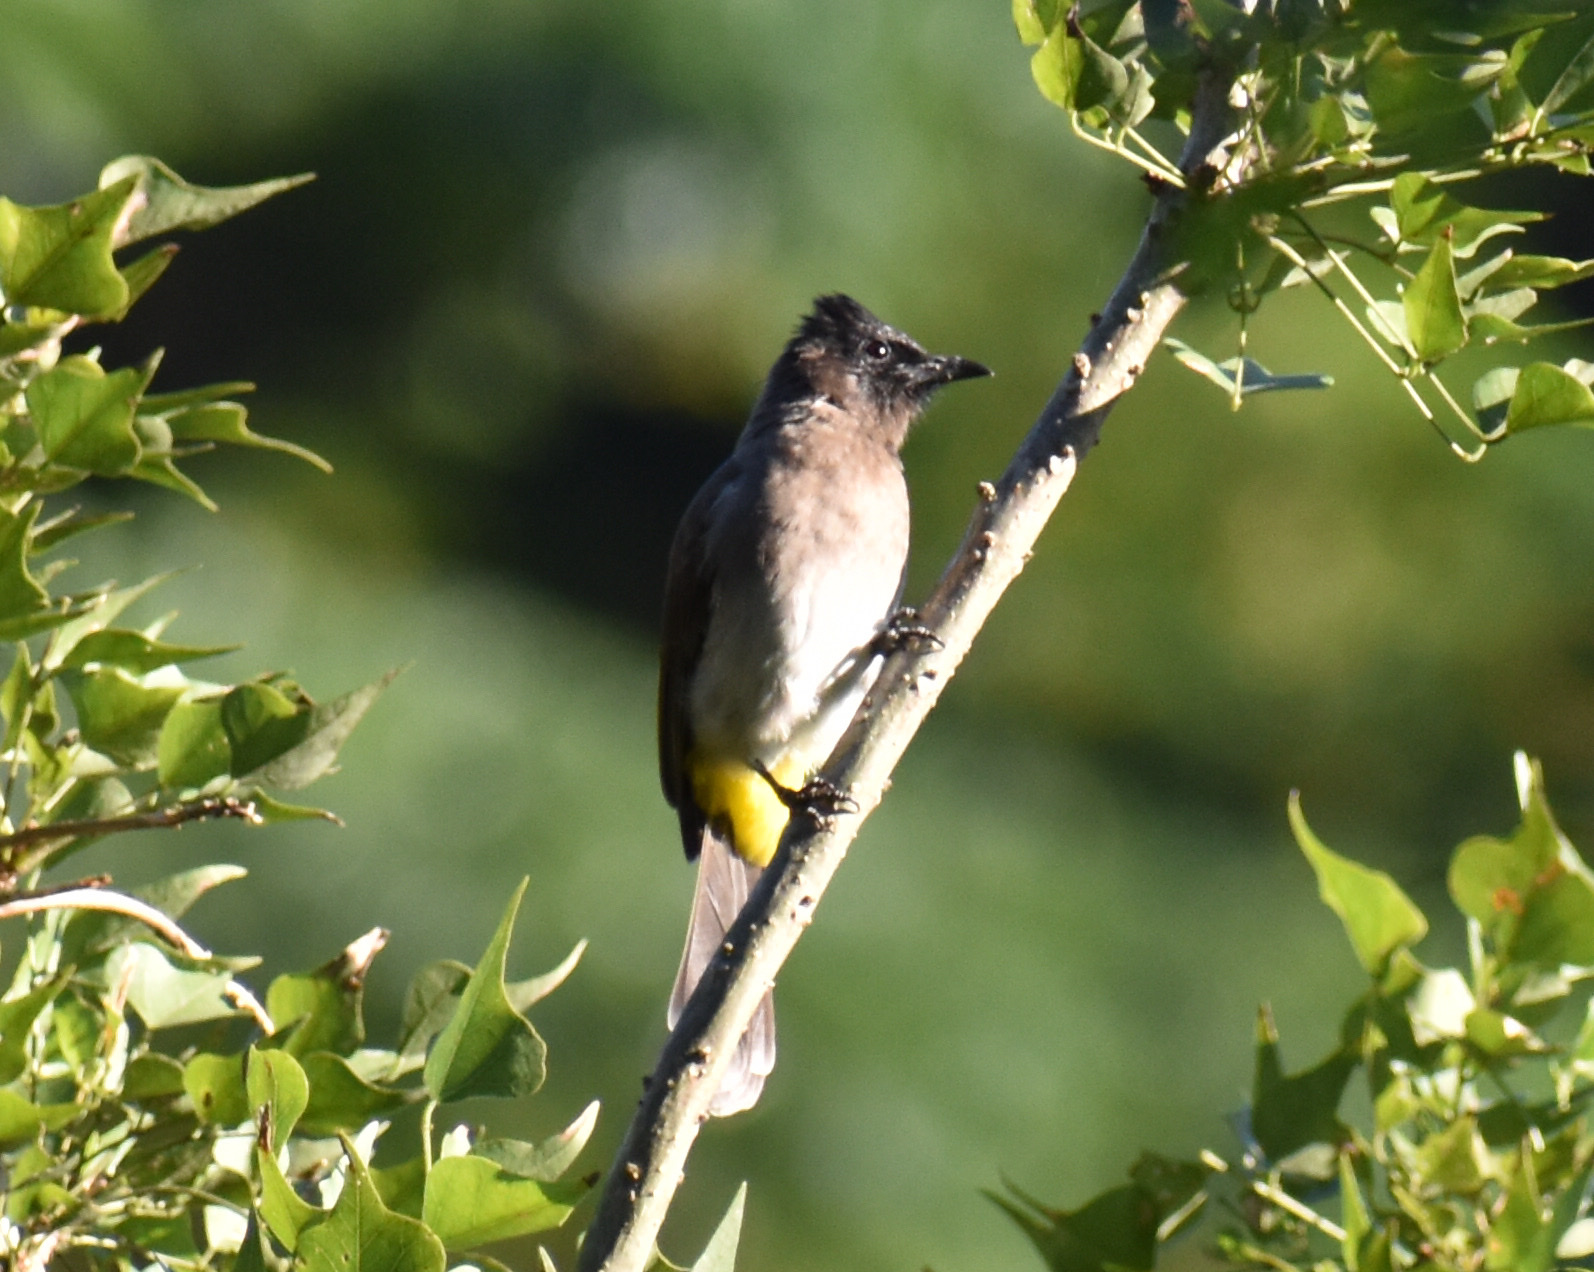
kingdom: Animalia
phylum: Chordata
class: Aves
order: Passeriformes
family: Pycnonotidae
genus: Pycnonotus
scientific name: Pycnonotus barbatus
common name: Common bulbul
